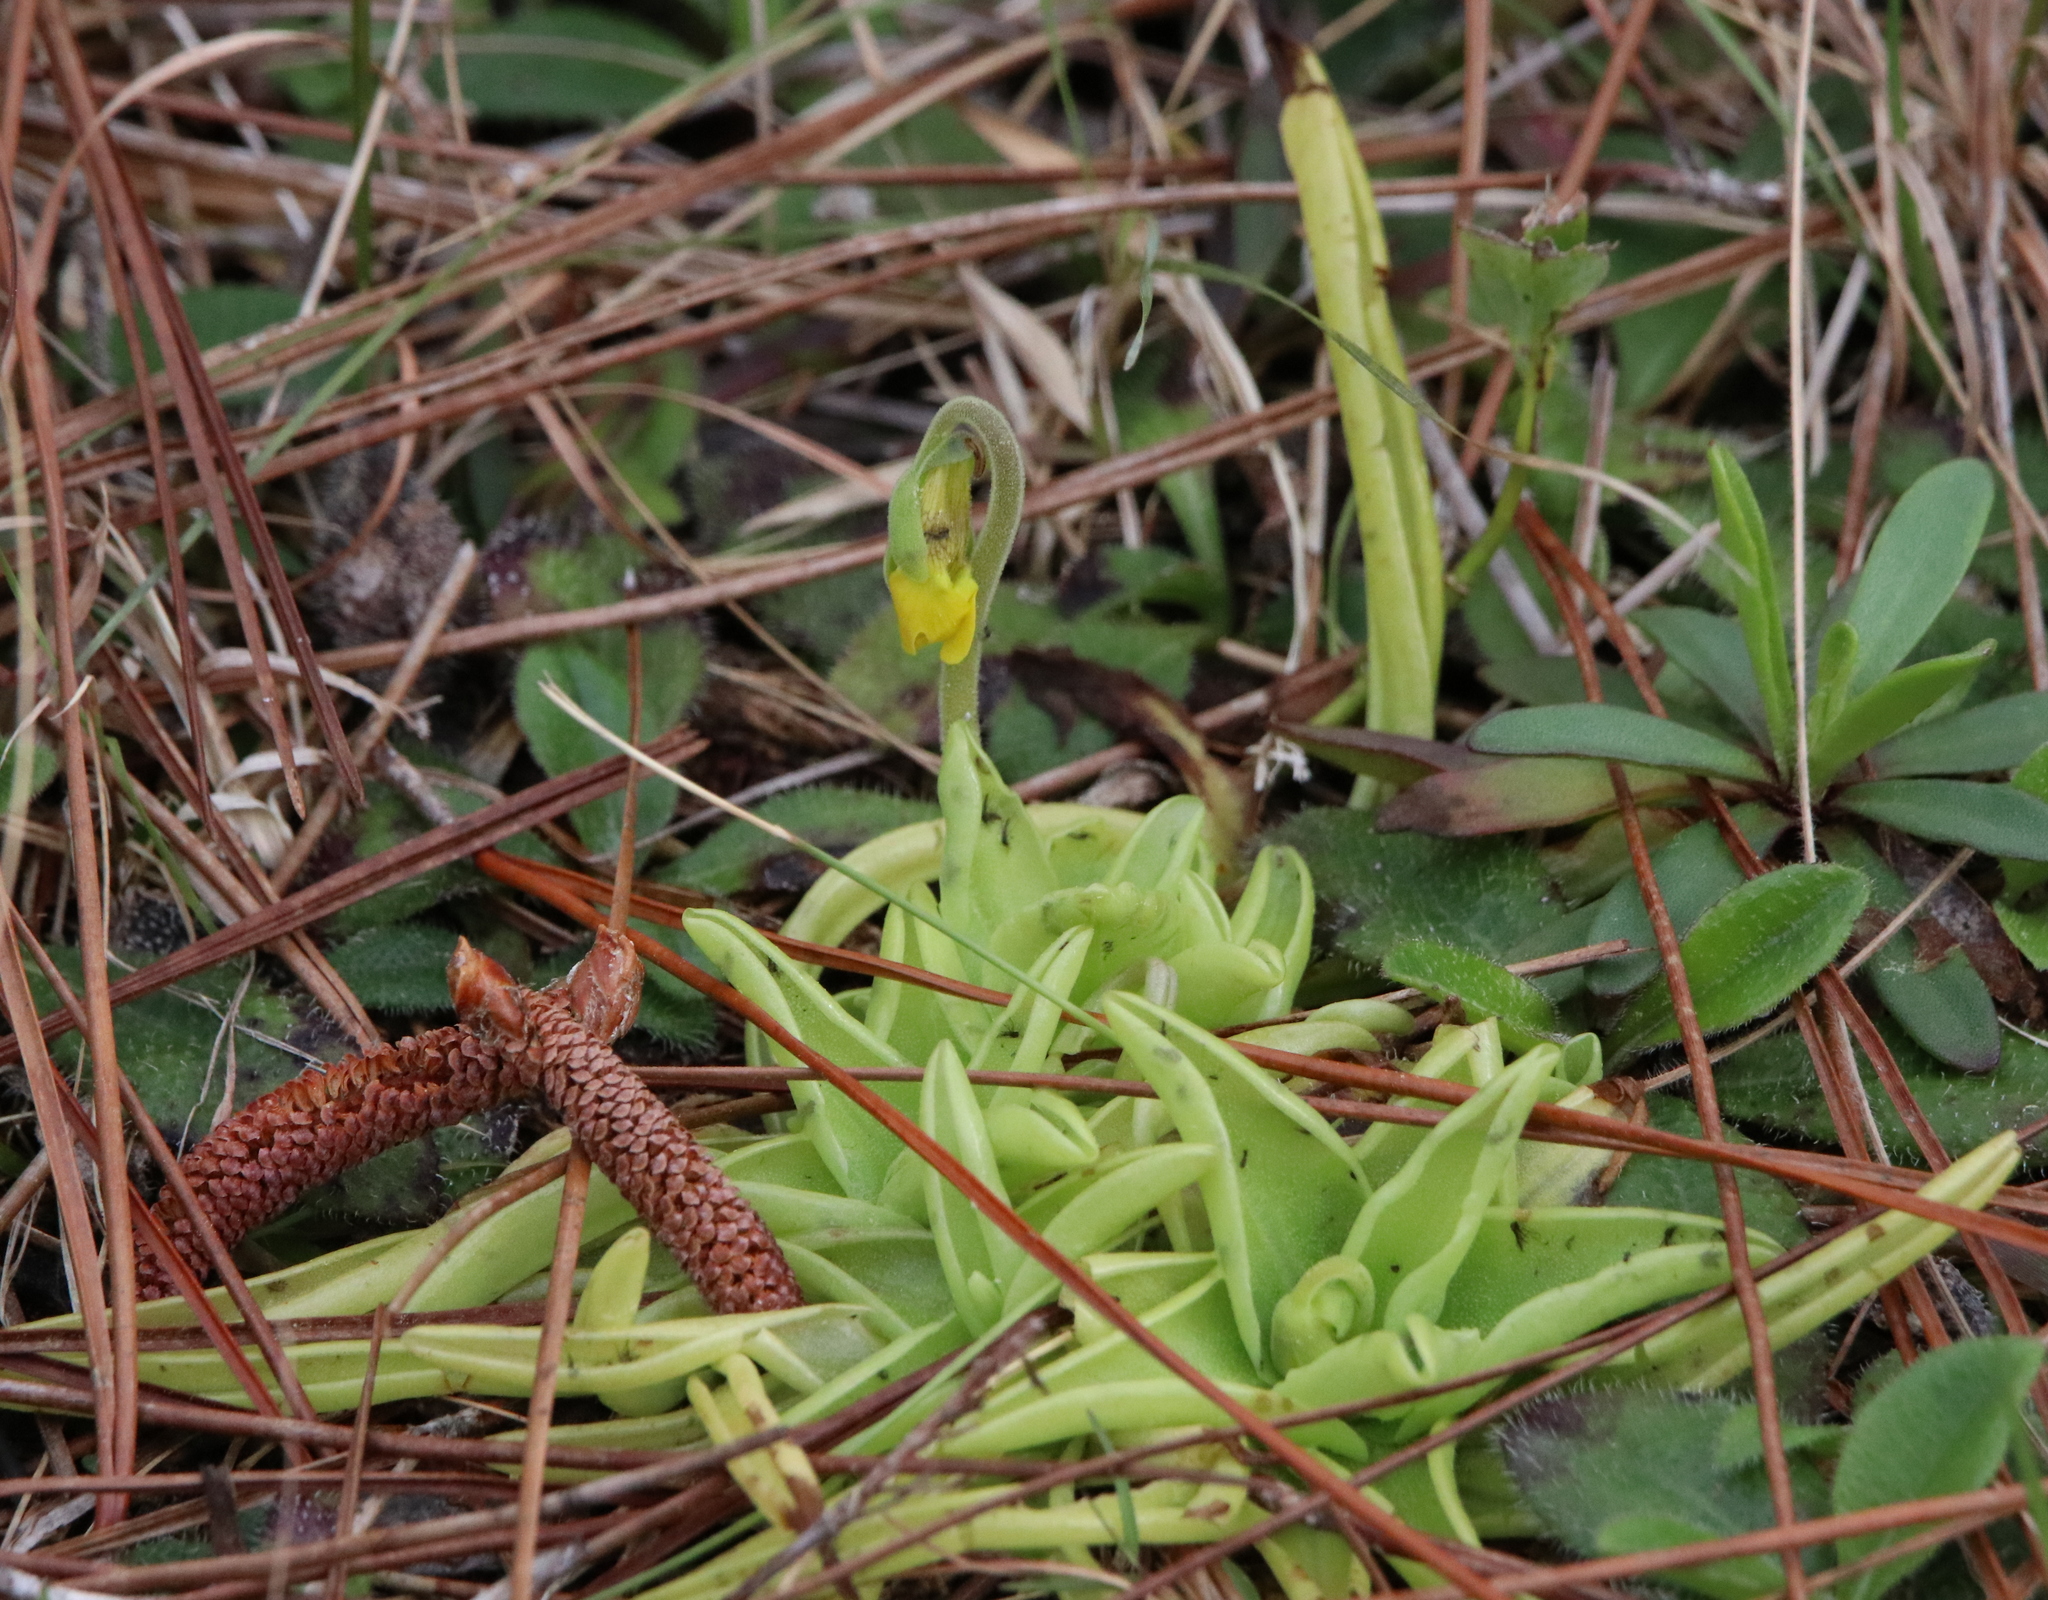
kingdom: Plantae
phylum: Tracheophyta
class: Magnoliopsida
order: Lamiales
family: Lentibulariaceae
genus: Pinguicula
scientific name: Pinguicula lutea
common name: Yellow butterwort
